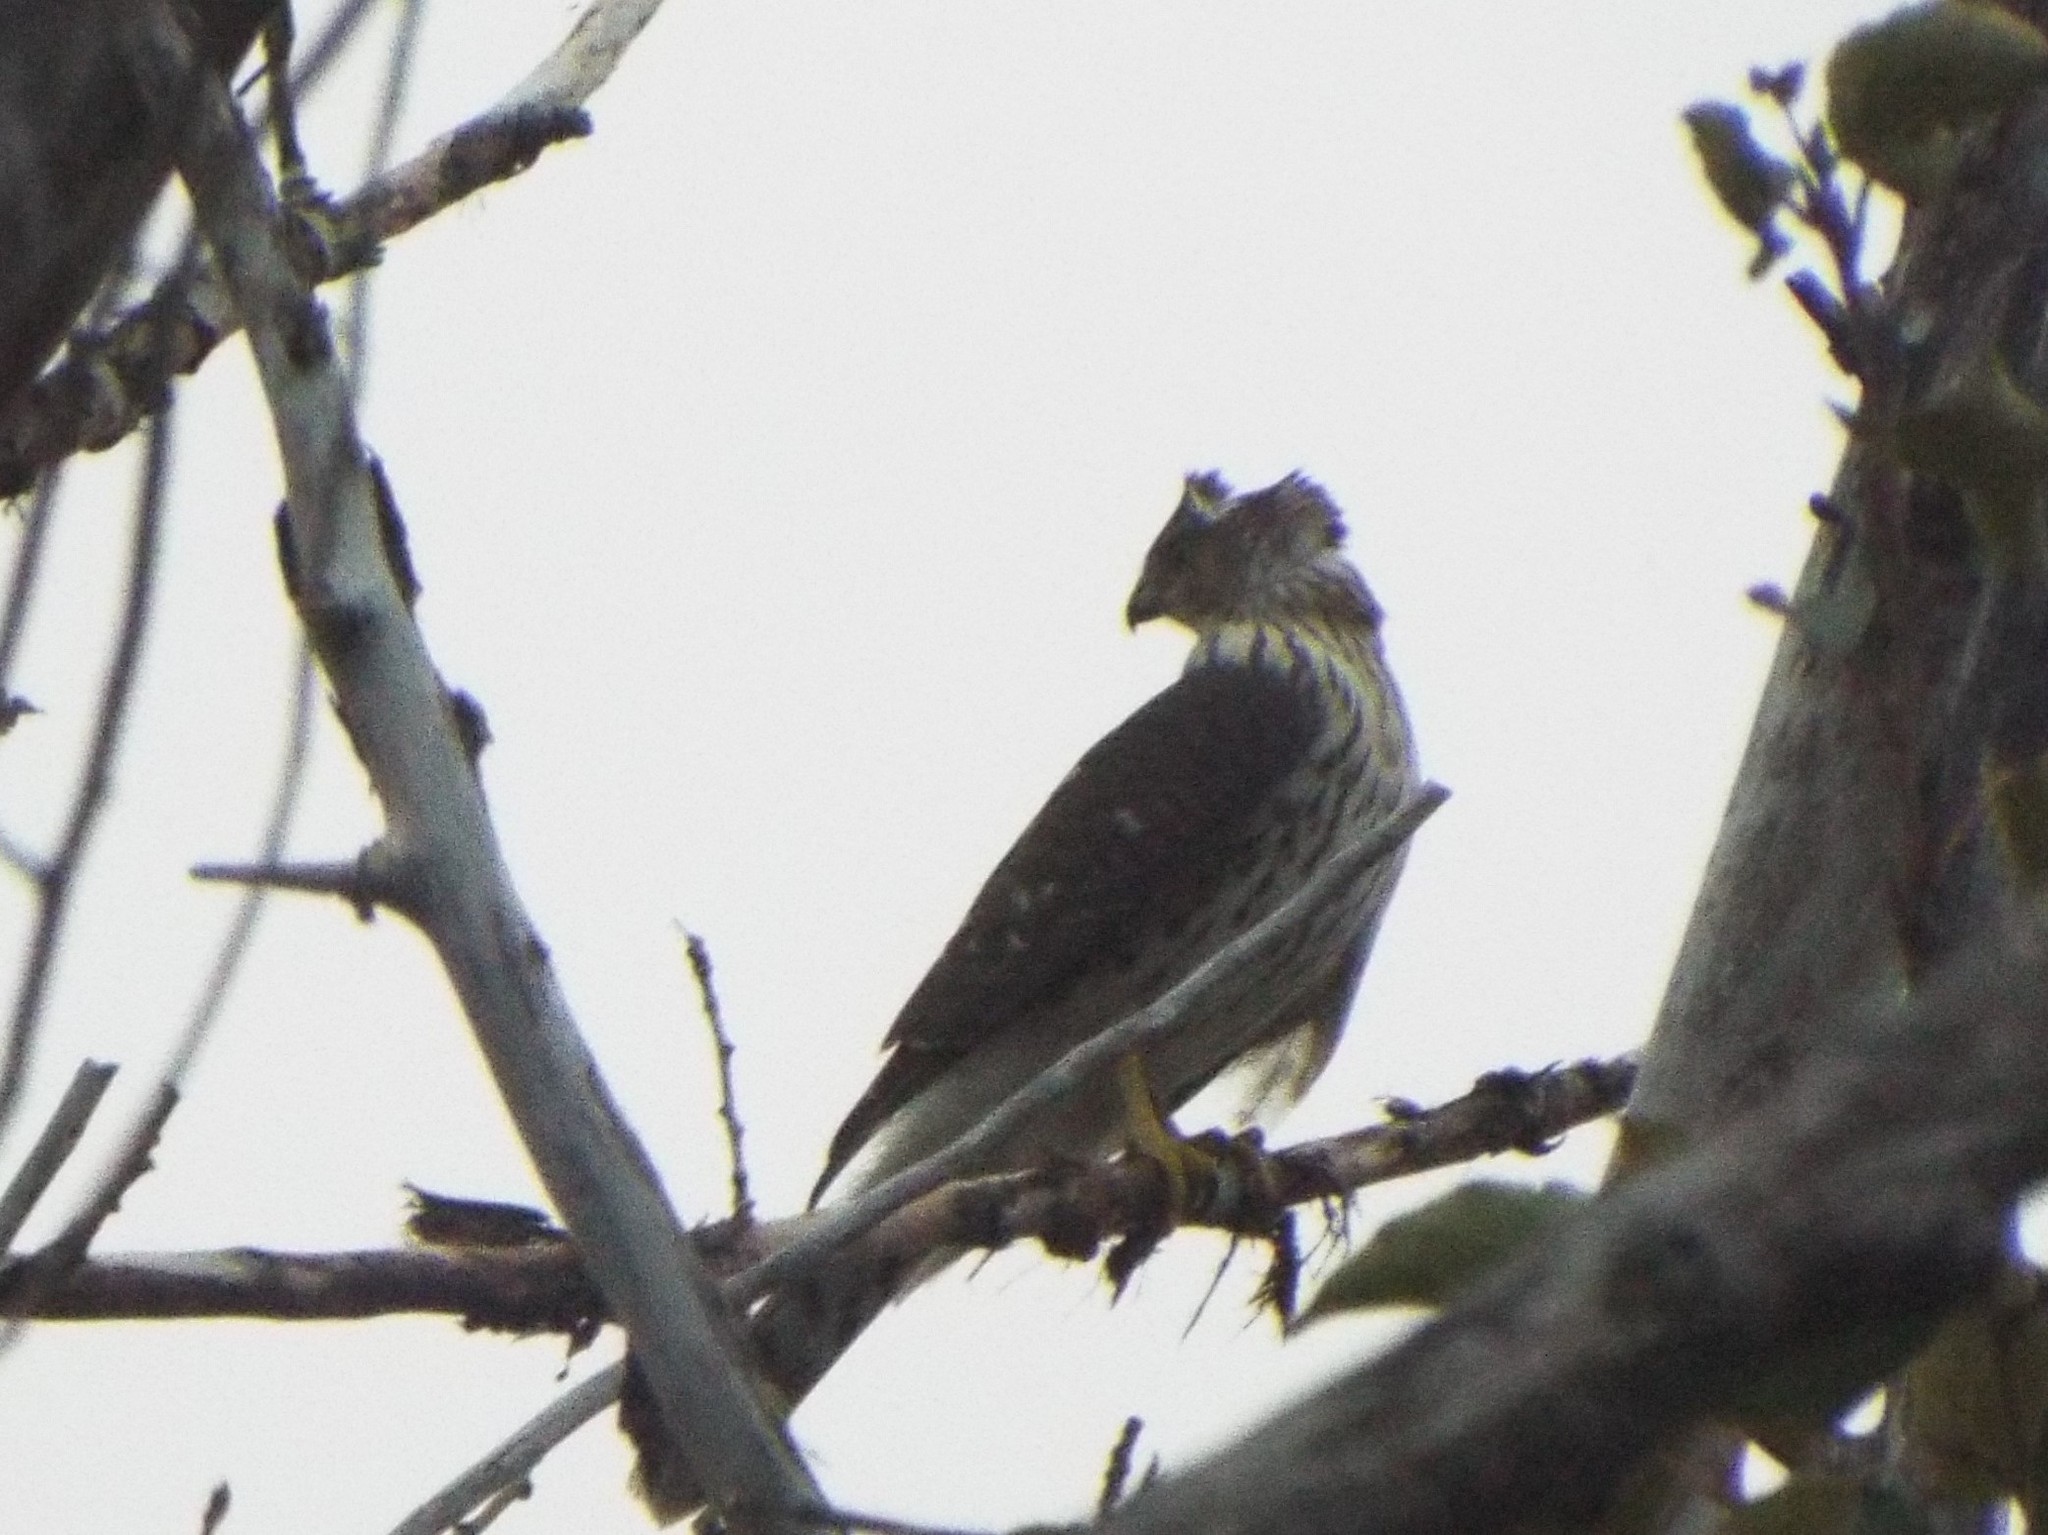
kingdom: Animalia
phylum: Chordata
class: Aves
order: Accipitriformes
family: Accipitridae
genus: Accipiter
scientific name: Accipiter cooperii
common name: Cooper's hawk
